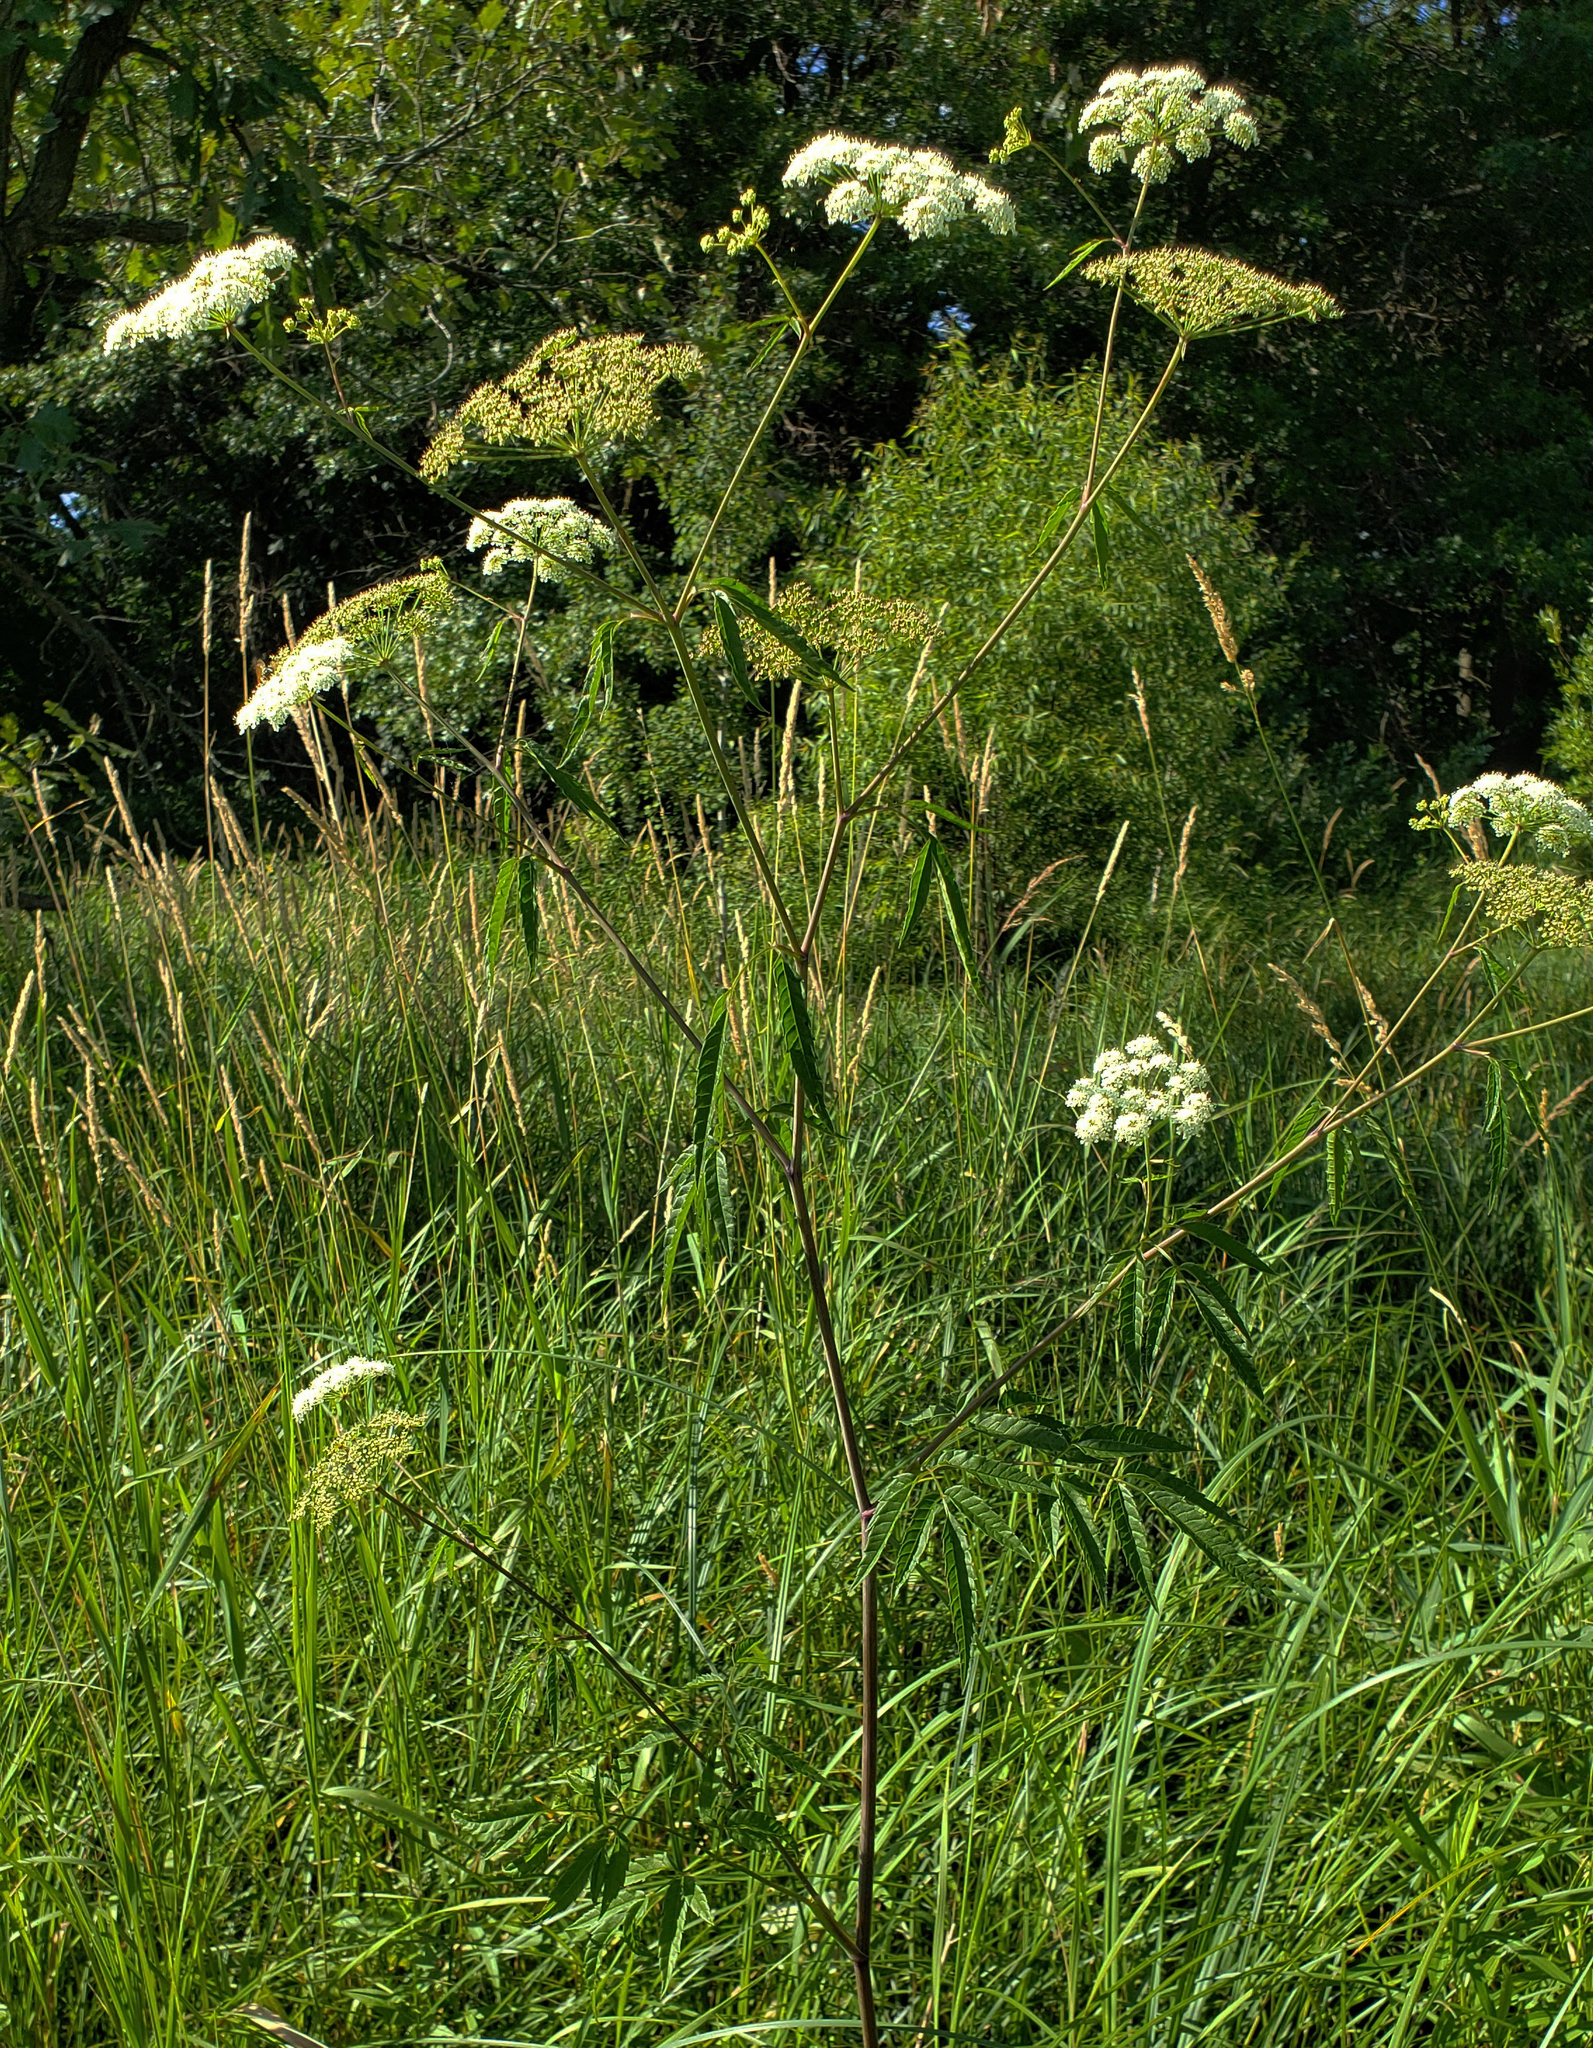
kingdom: Plantae
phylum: Tracheophyta
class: Magnoliopsida
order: Apiales
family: Apiaceae
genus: Cicuta
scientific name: Cicuta maculata
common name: Spotted cowbane
